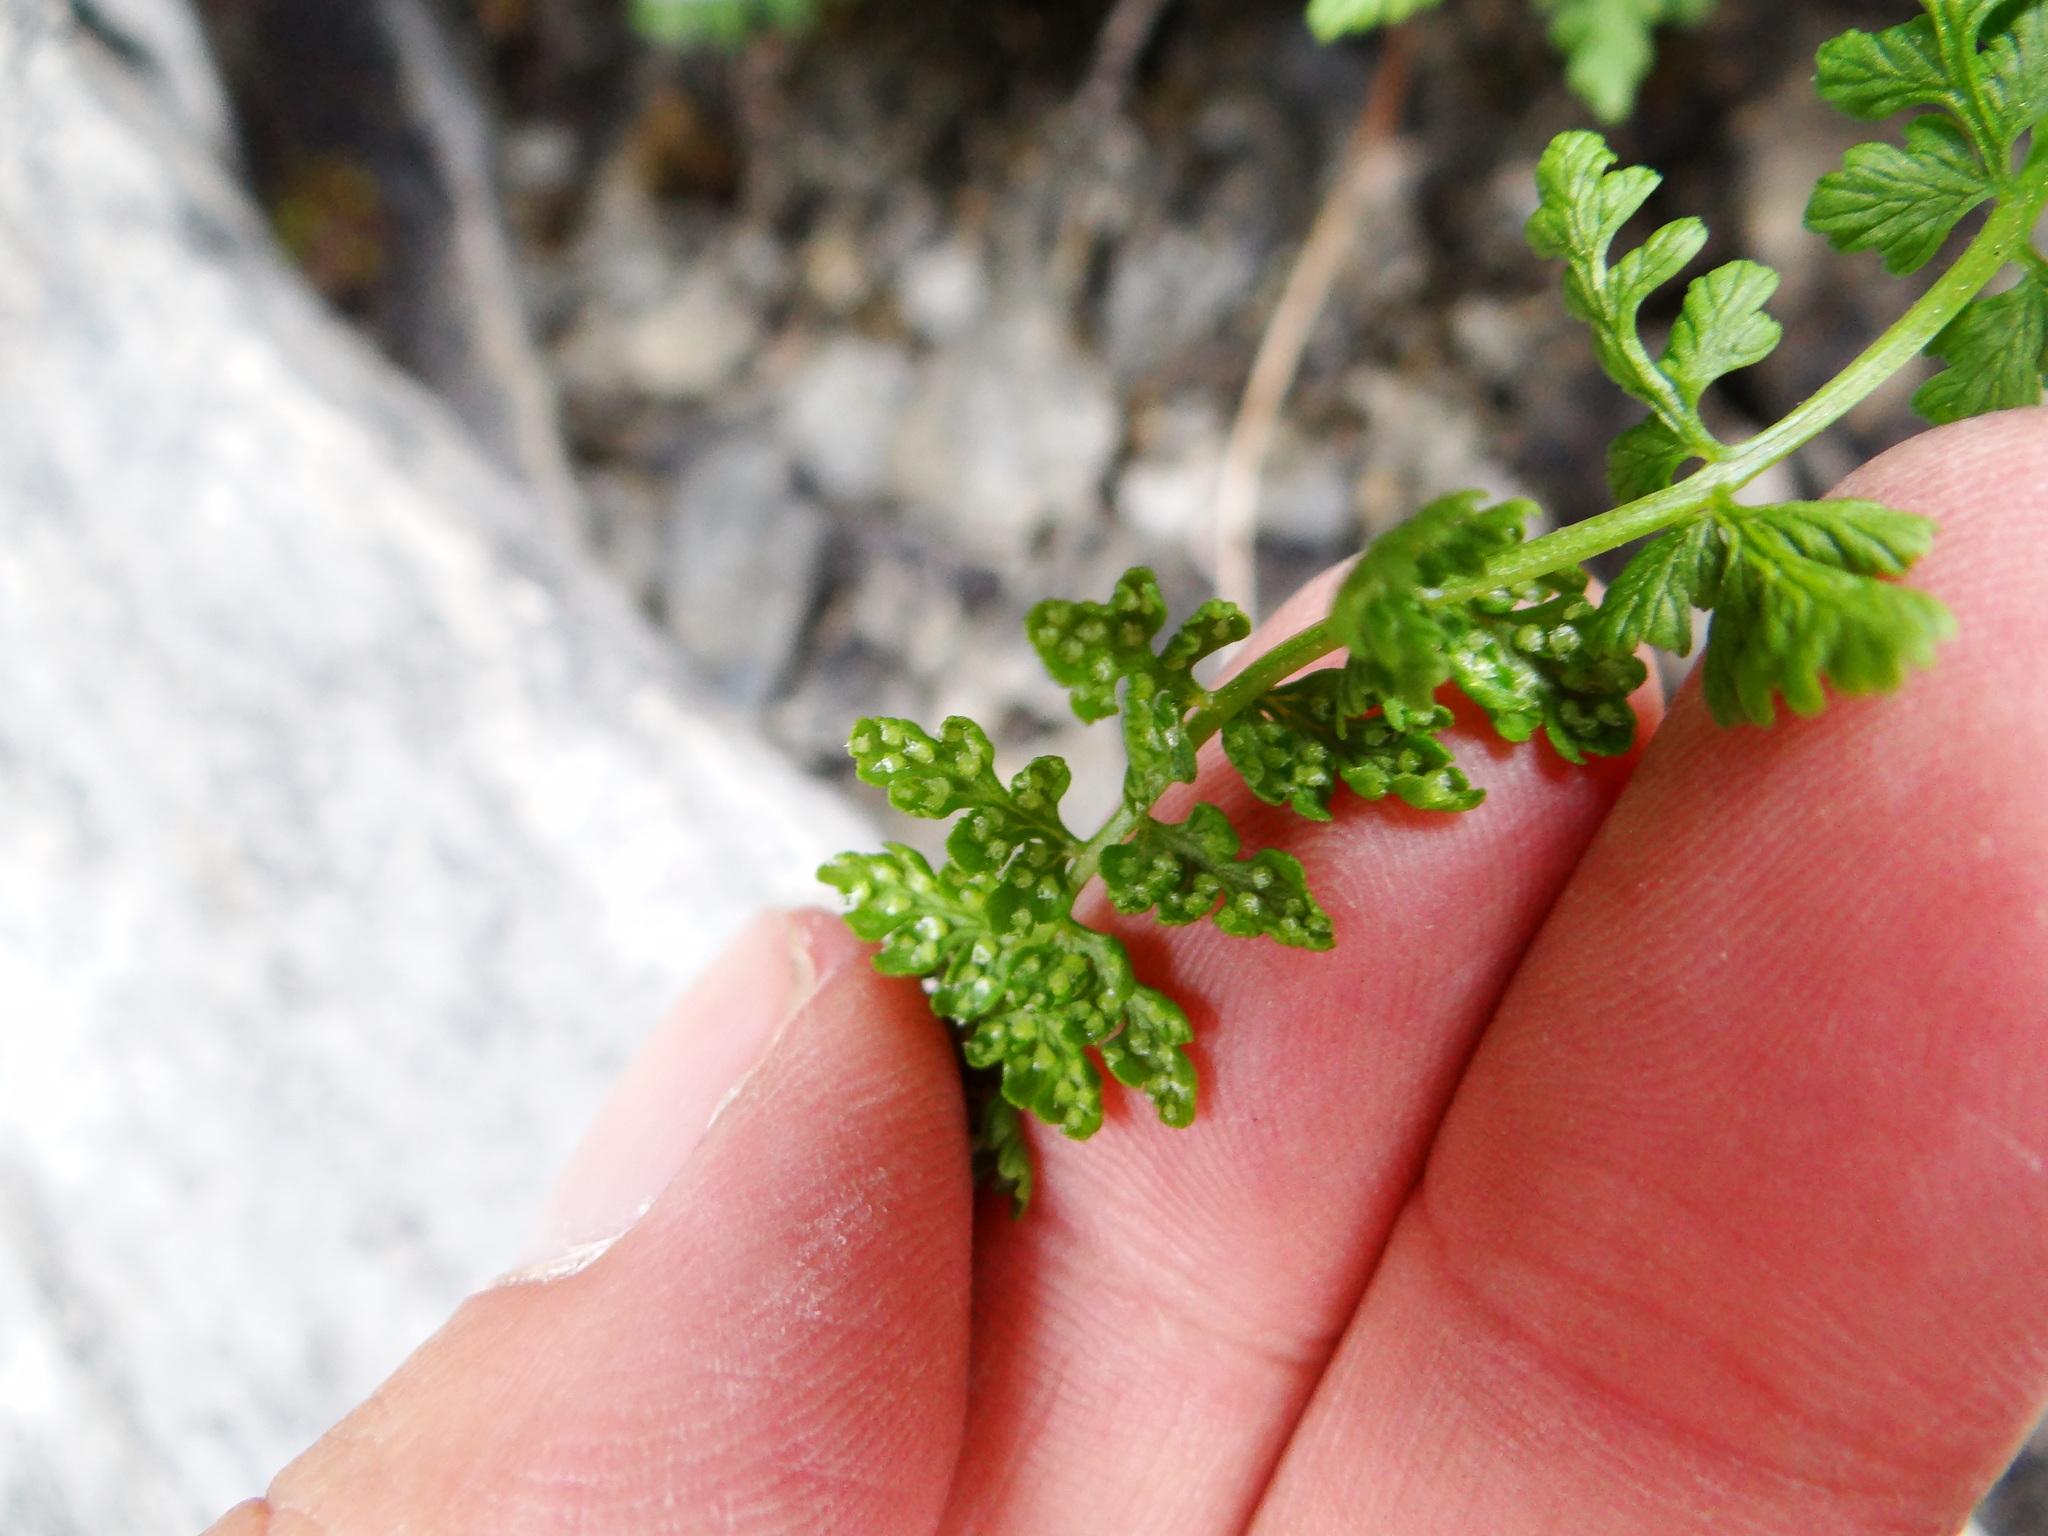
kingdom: Plantae
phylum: Tracheophyta
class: Polypodiopsida
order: Polypodiales
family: Cystopteridaceae
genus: Cystopteris
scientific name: Cystopteris fragilis
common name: Brittle bladder fern
